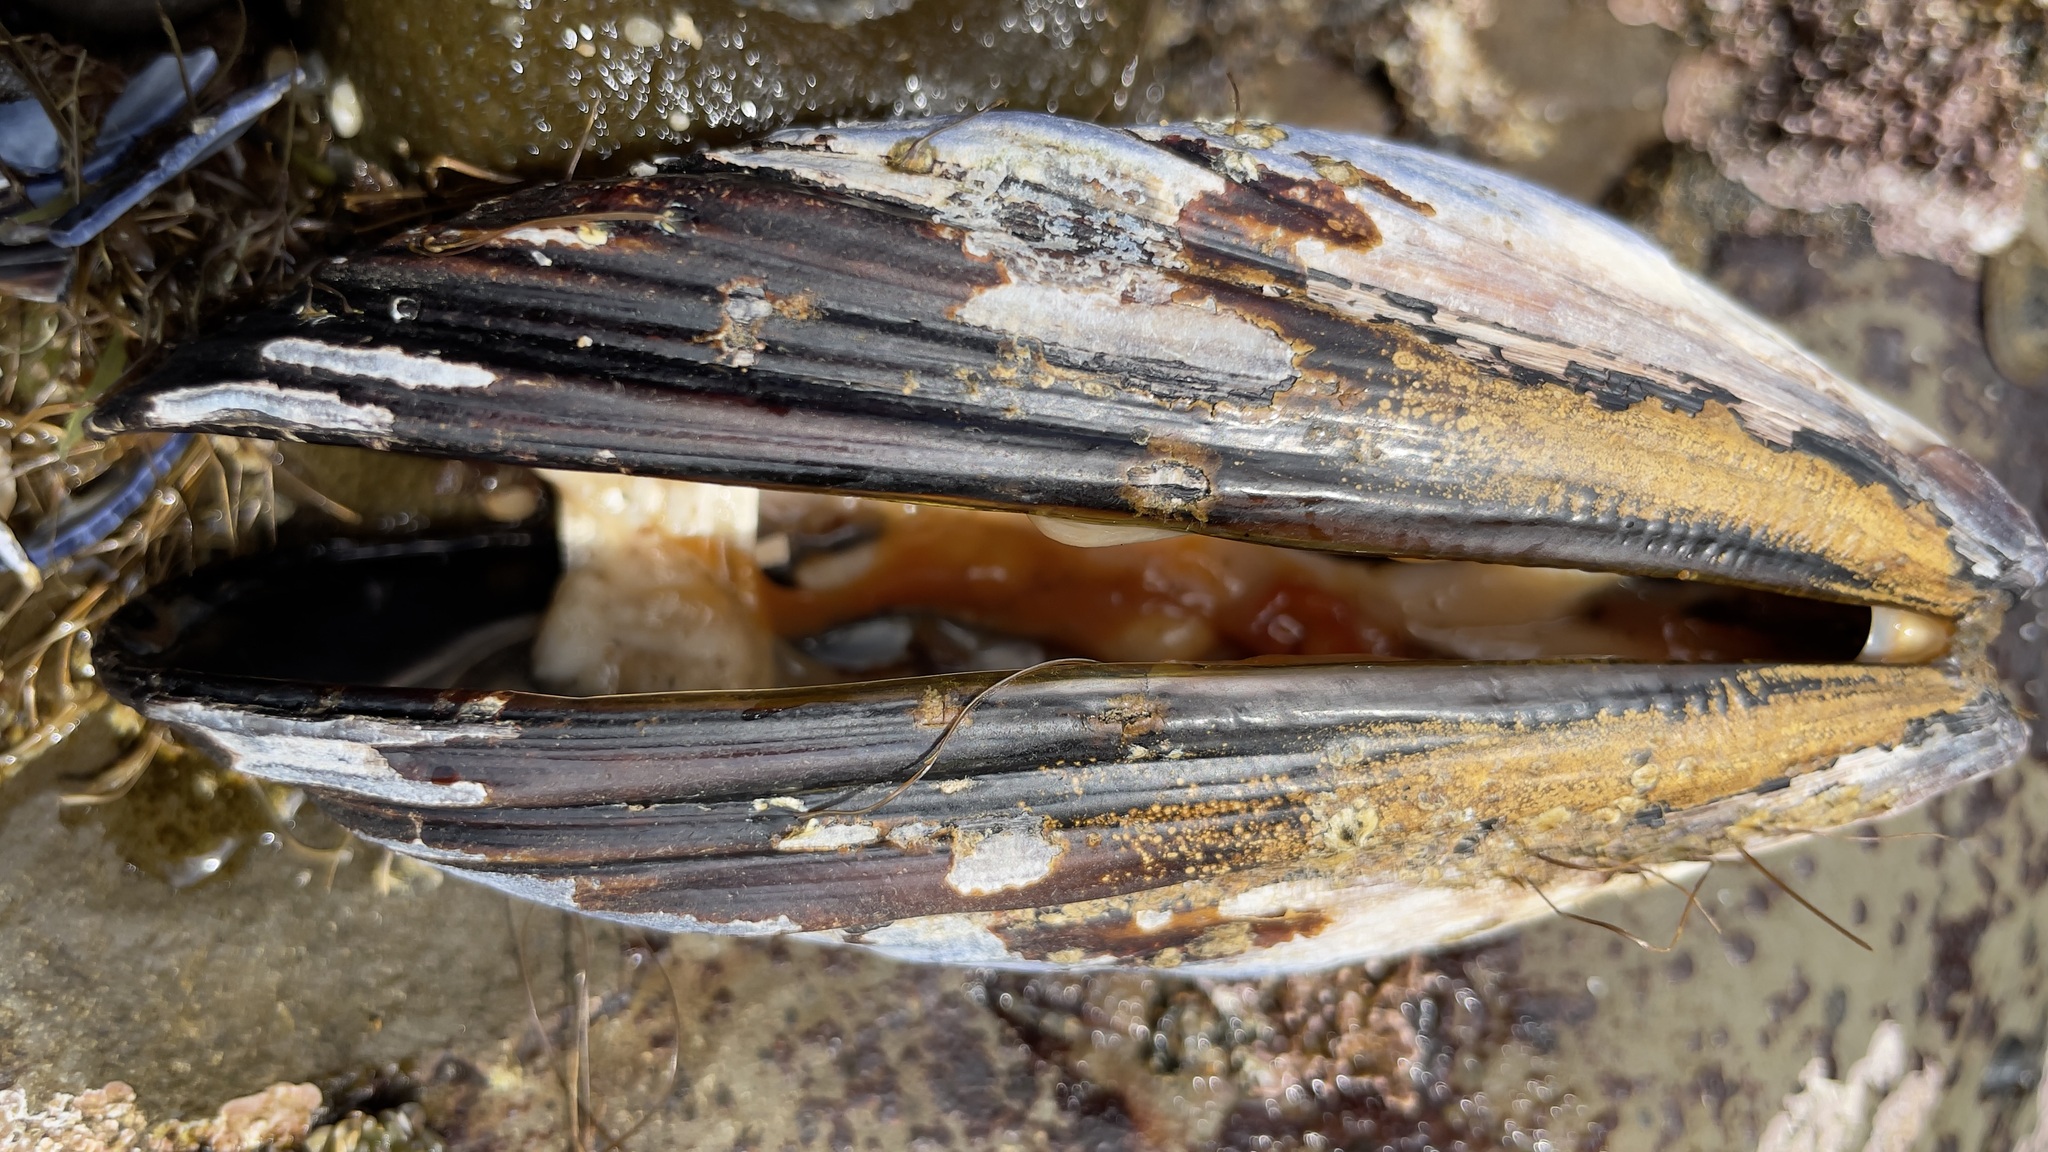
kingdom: Animalia
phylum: Mollusca
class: Bivalvia
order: Mytilida
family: Mytilidae
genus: Mytilus
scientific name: Mytilus californianus
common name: California mussel
